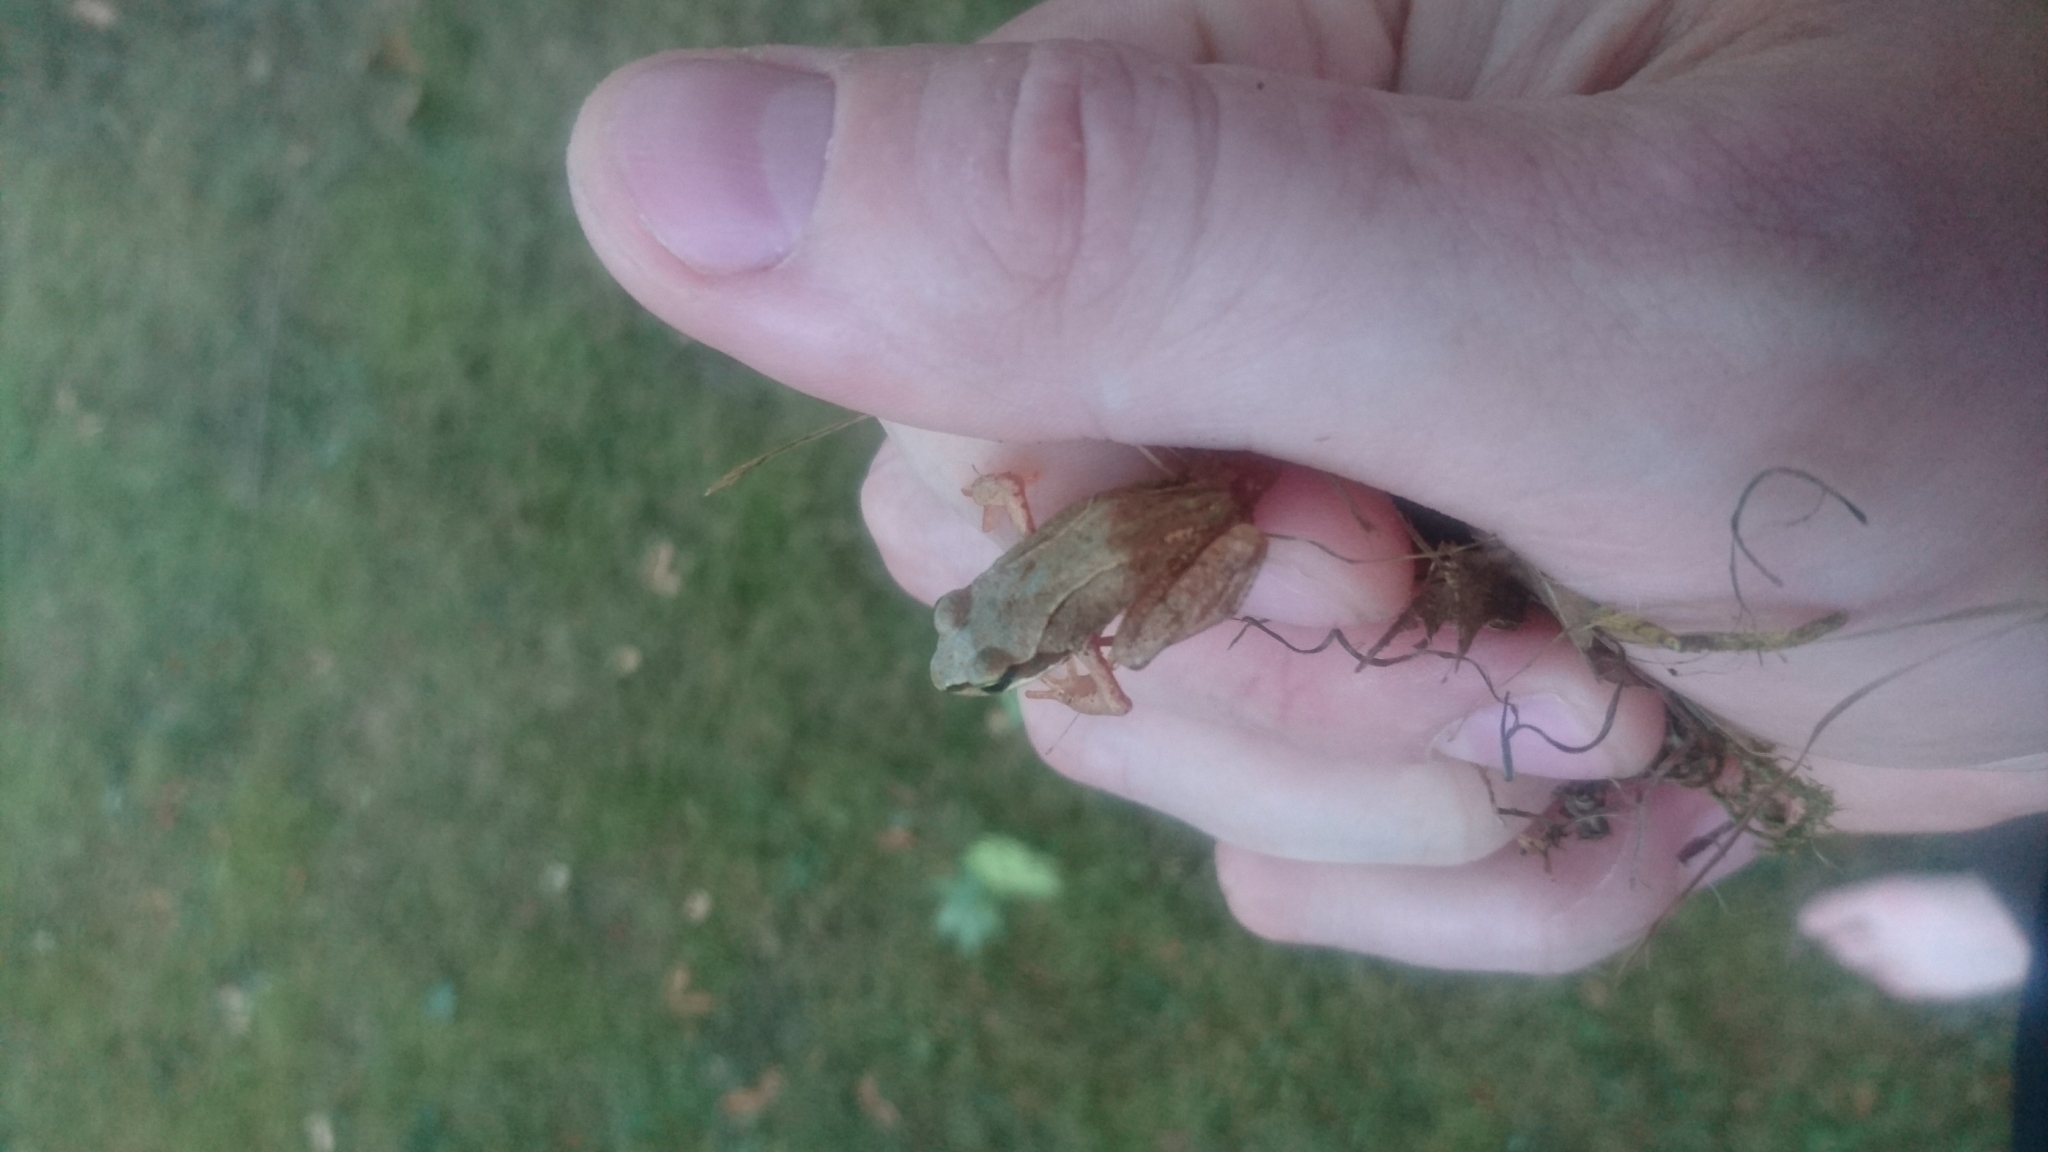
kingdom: Animalia
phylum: Chordata
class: Amphibia
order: Anura
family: Ranidae
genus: Rana
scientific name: Rana temporaria
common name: Common frog
